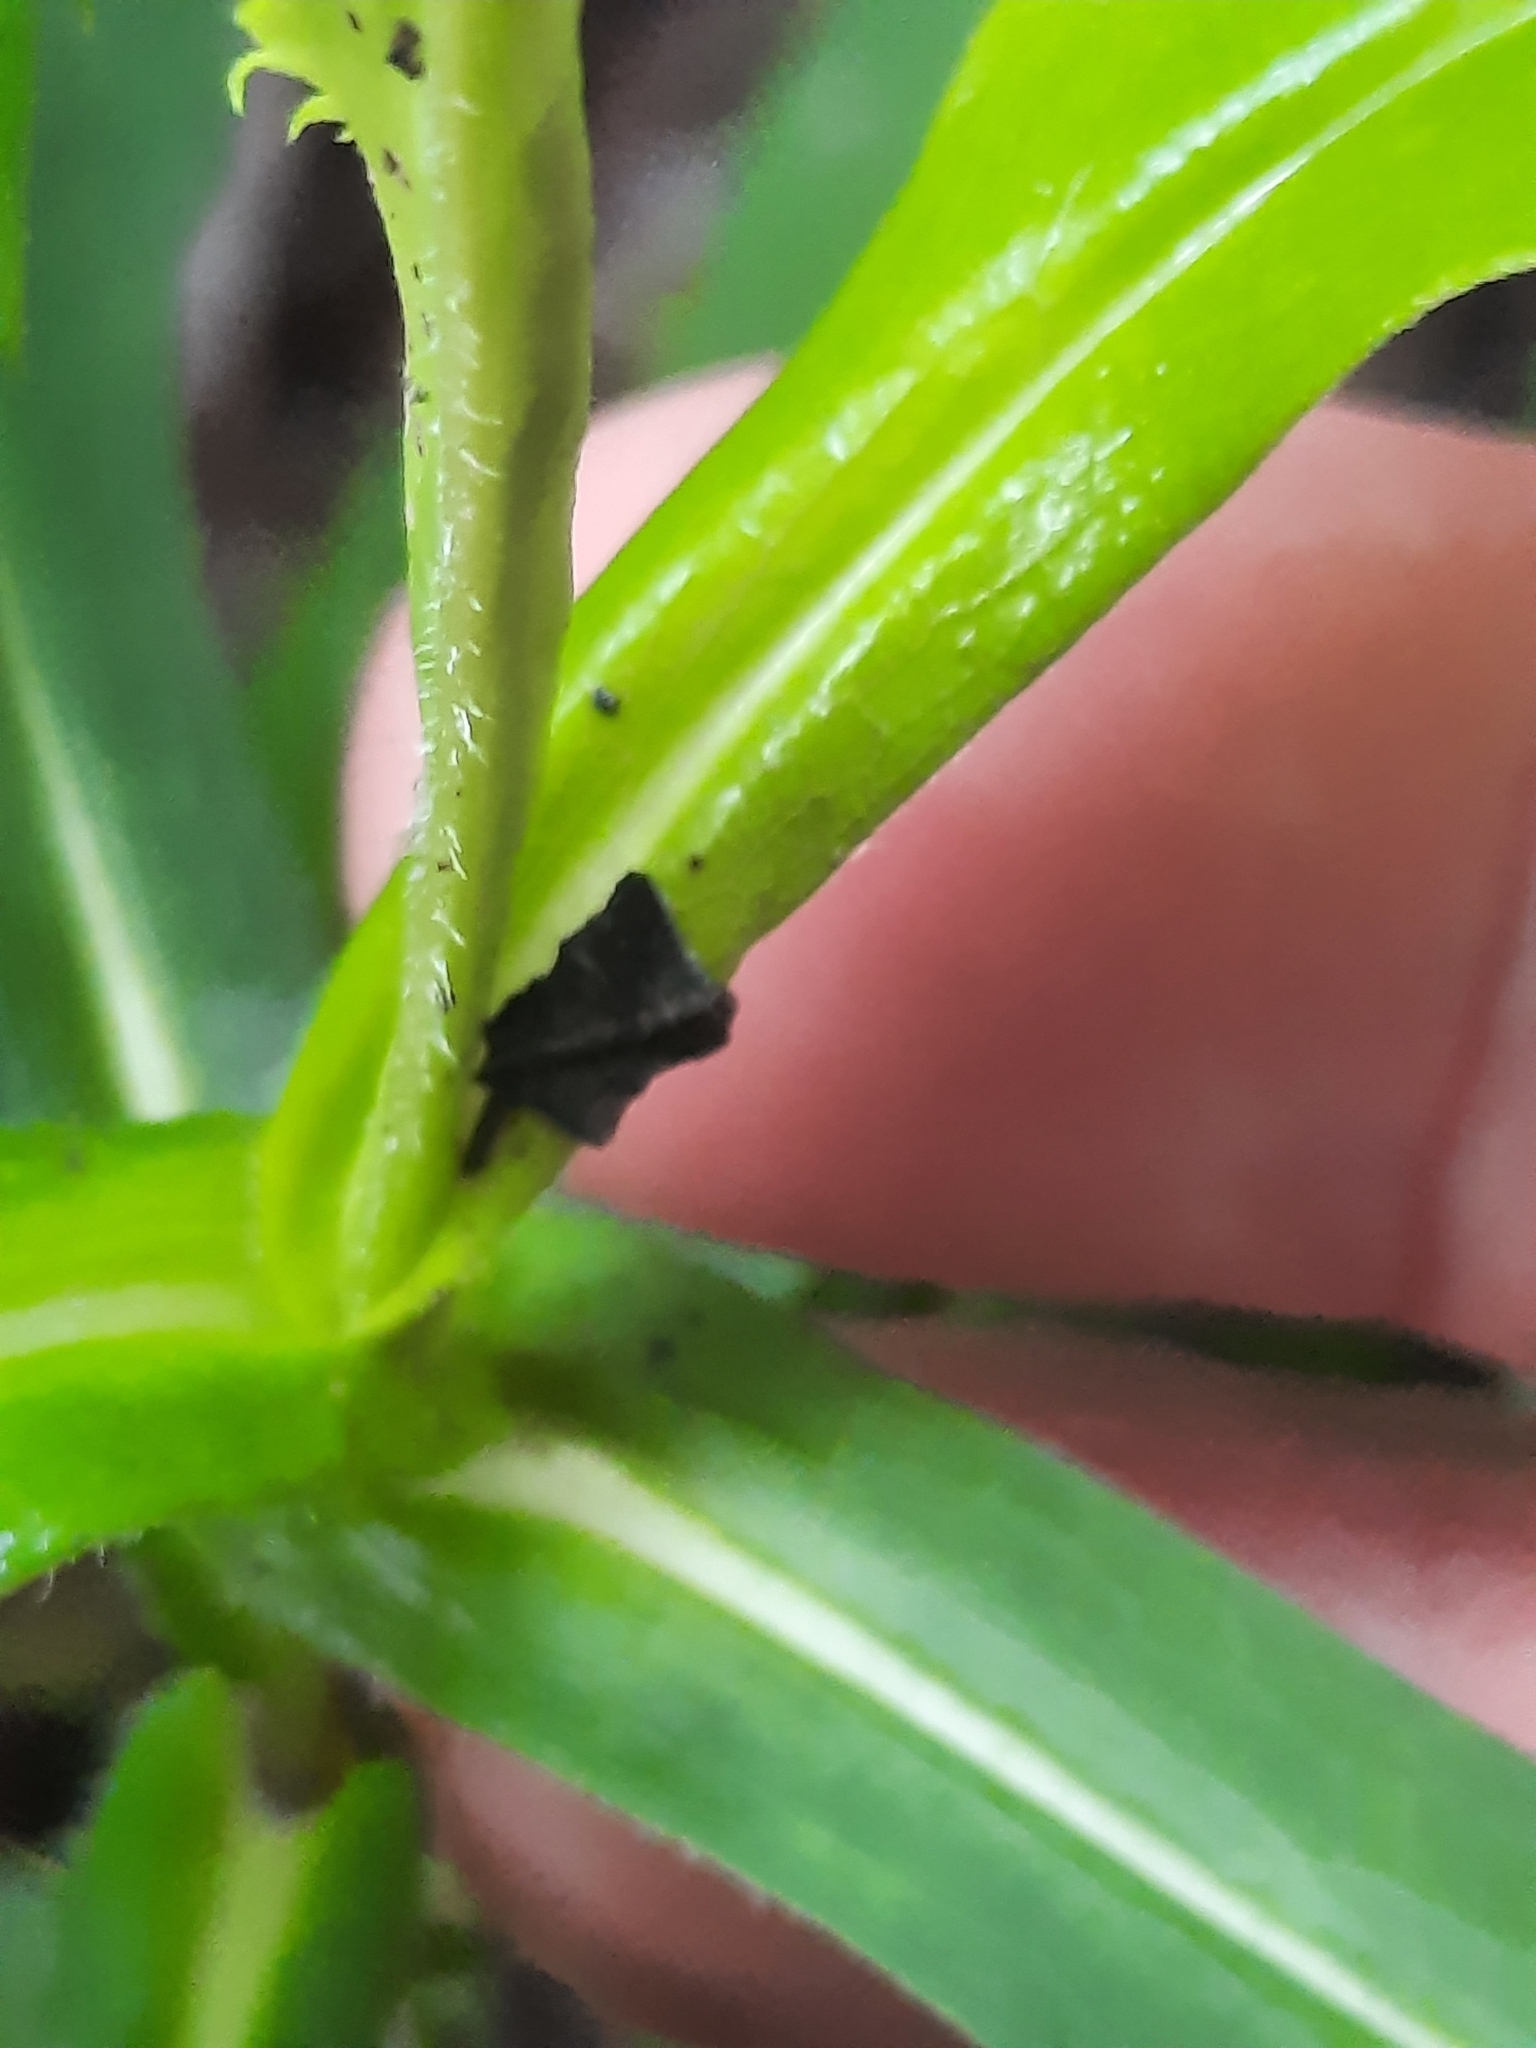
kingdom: Plantae
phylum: Tracheophyta
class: Magnoliopsida
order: Asterales
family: Asteraceae
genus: Symphyotrichum
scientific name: Symphyotrichum prenanthoides
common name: Crooked-stem aster
